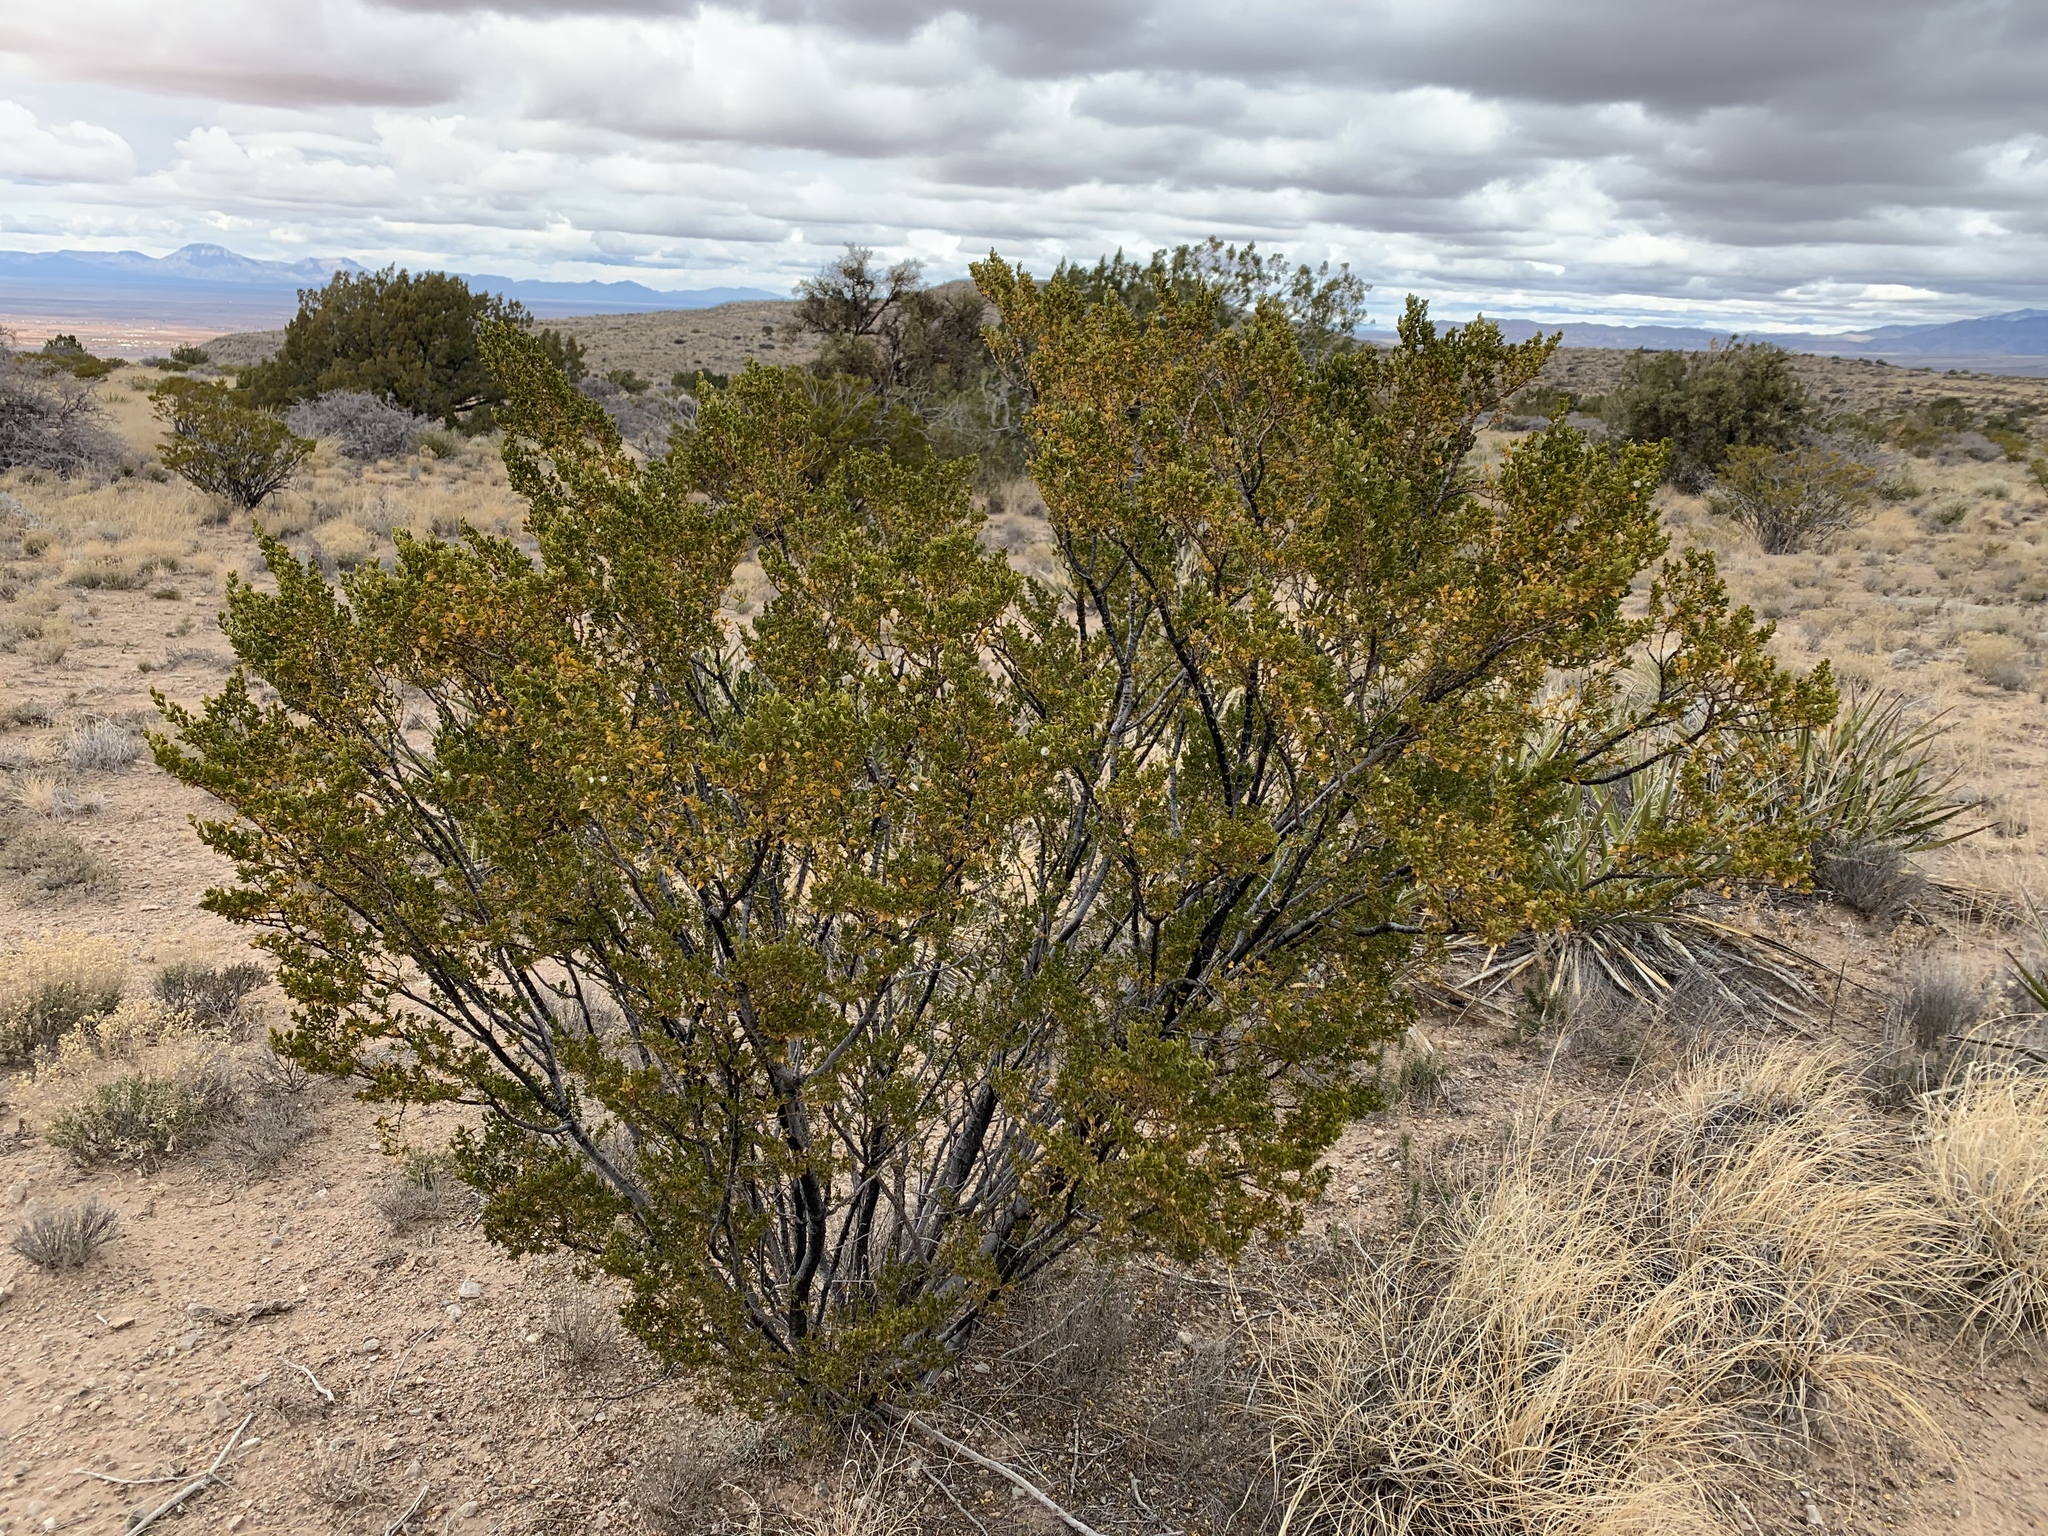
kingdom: Plantae
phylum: Tracheophyta
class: Magnoliopsida
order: Zygophyllales
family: Zygophyllaceae
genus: Larrea
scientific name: Larrea tridentata
